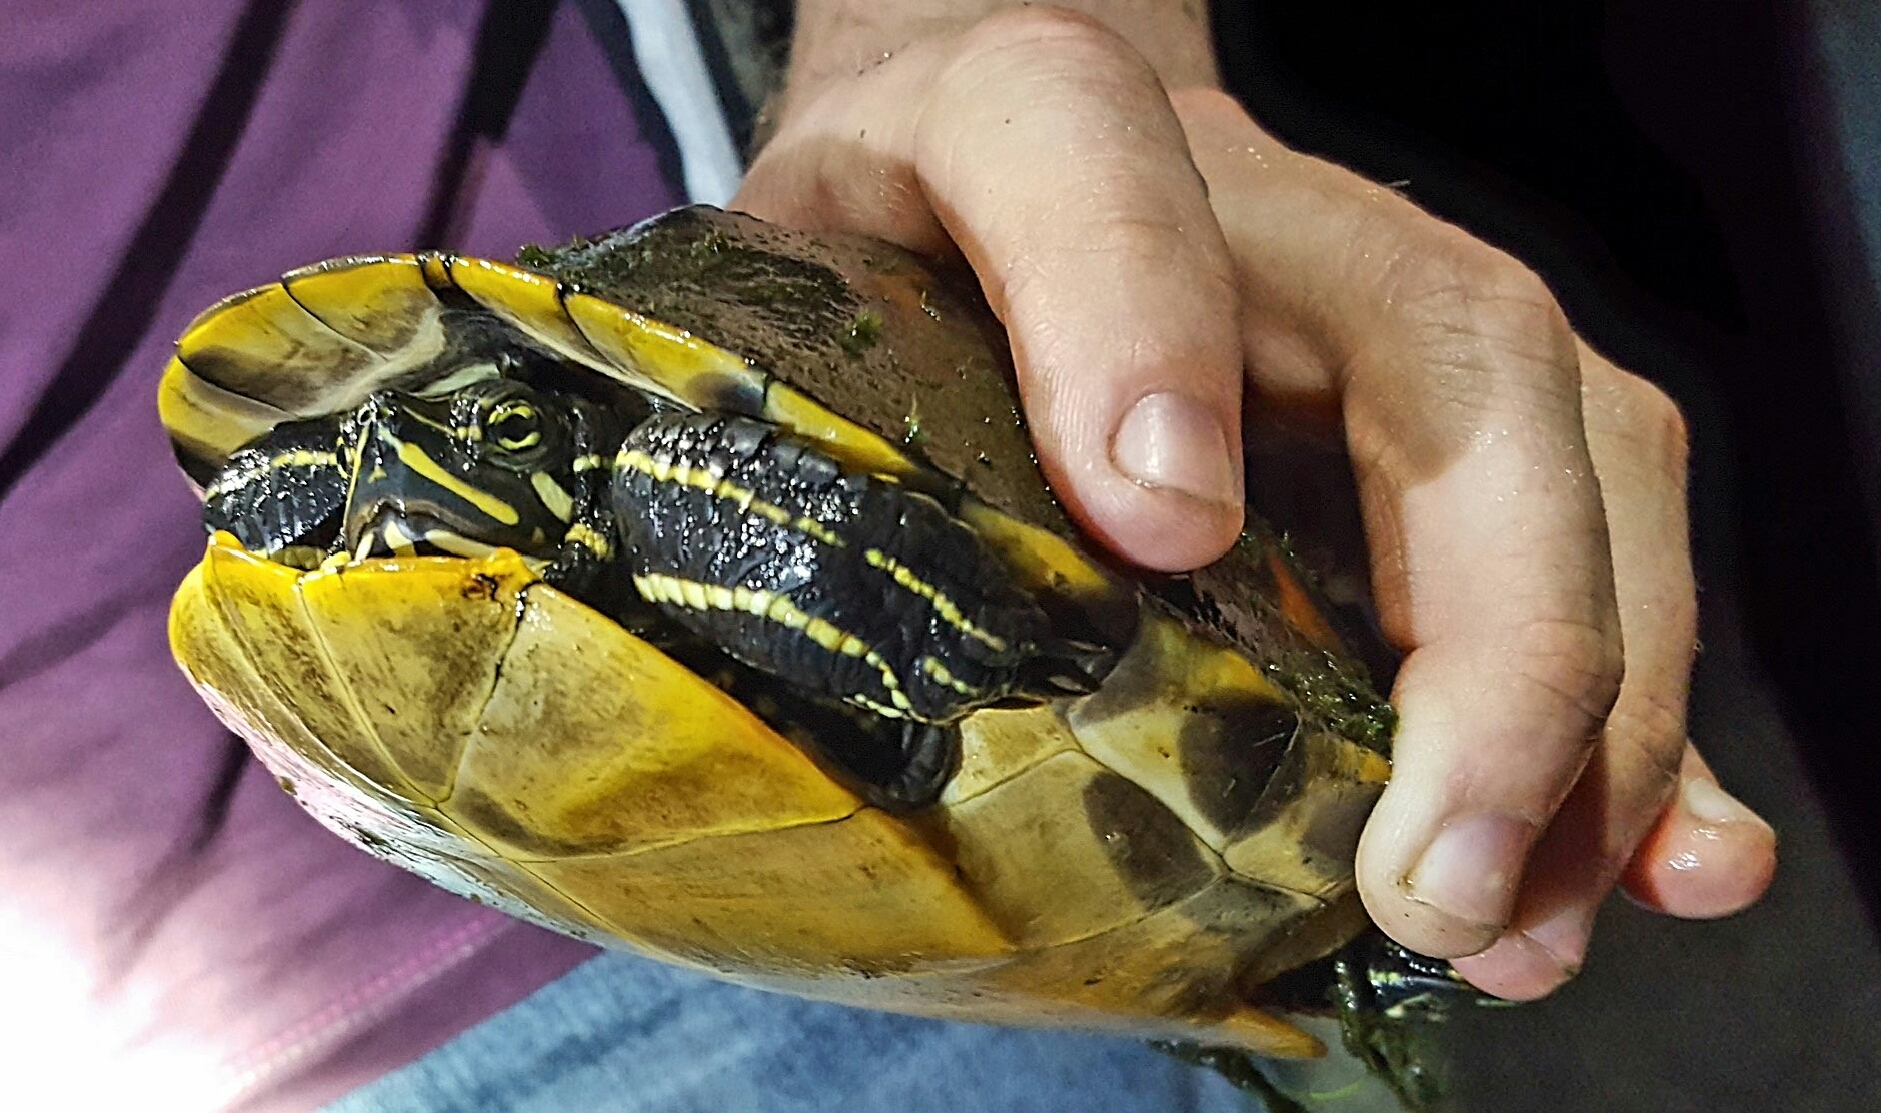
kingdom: Animalia
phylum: Chordata
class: Testudines
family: Emydidae
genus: Pseudemys
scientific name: Pseudemys nelsoni
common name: Florida red-bellied turtle
